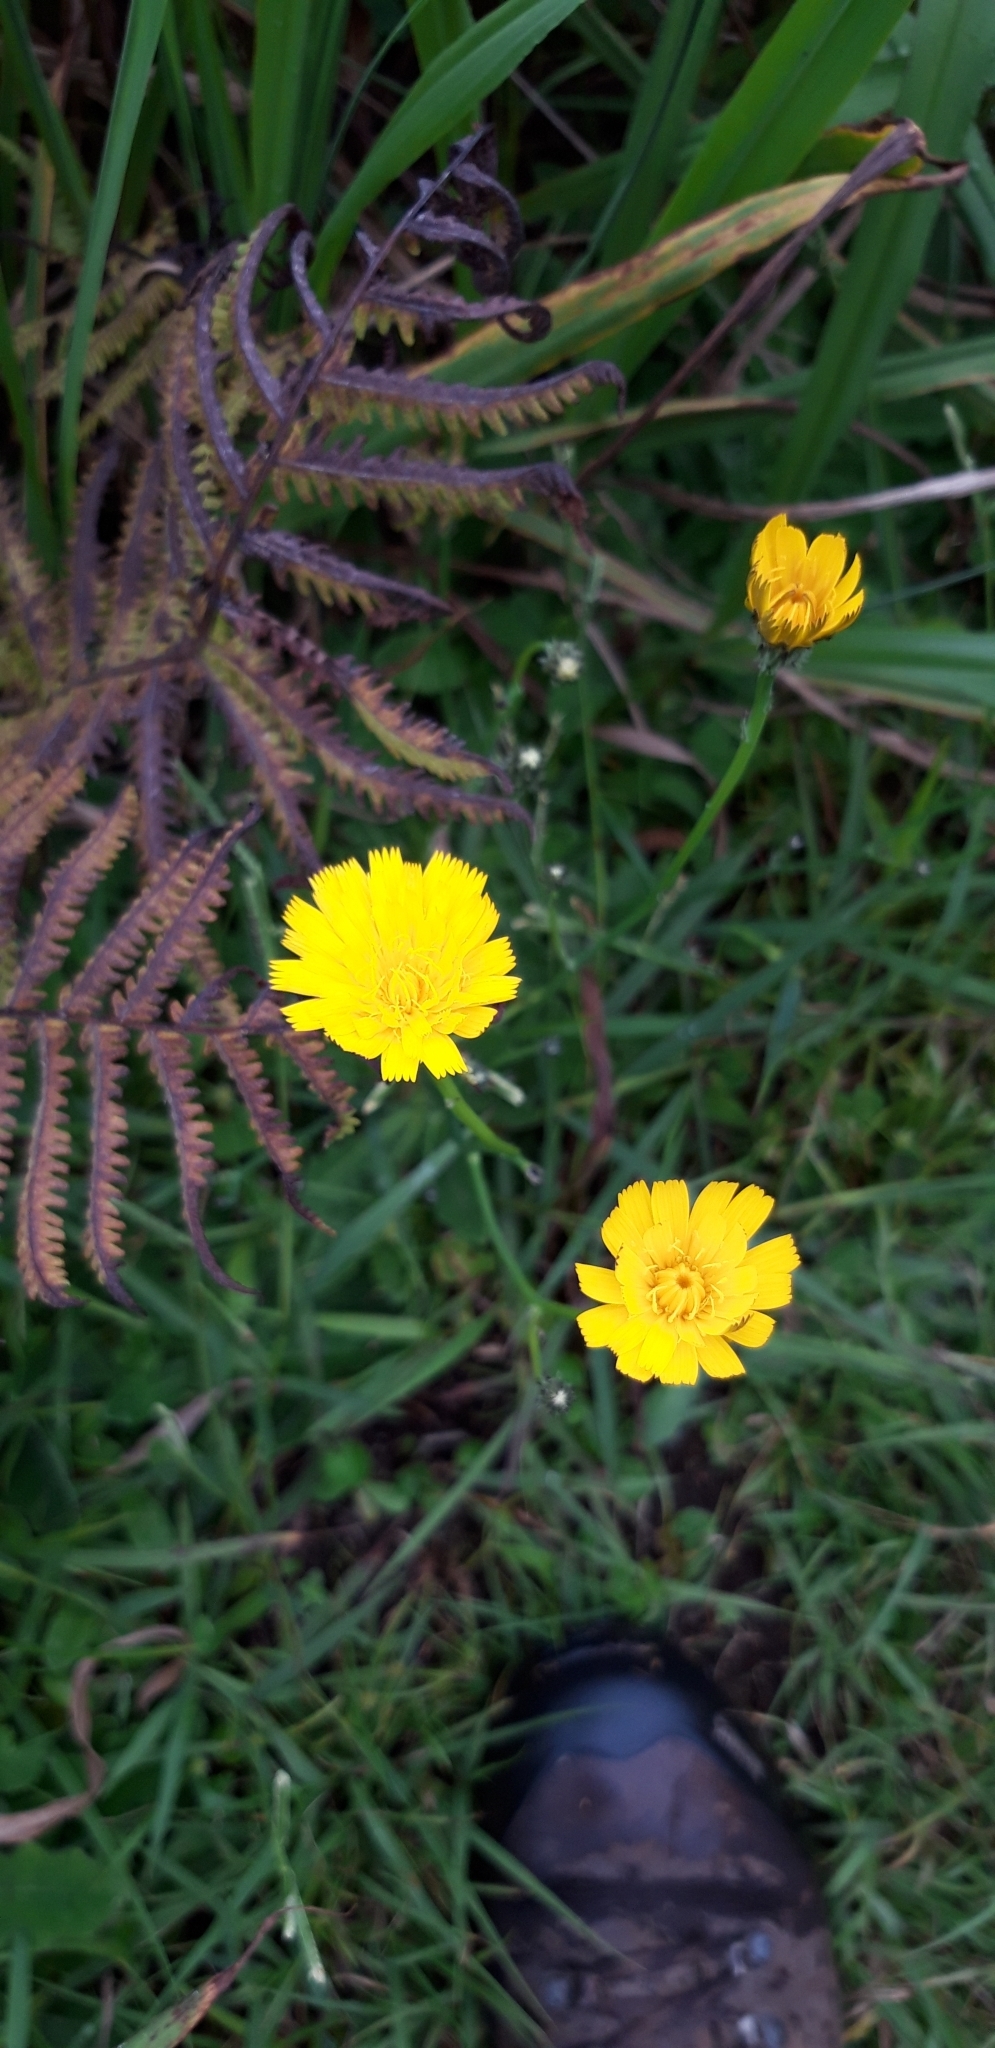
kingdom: Plantae
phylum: Tracheophyta
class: Magnoliopsida
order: Asterales
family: Asteraceae
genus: Hypochaeris
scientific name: Hypochaeris radicata
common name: Flatweed
